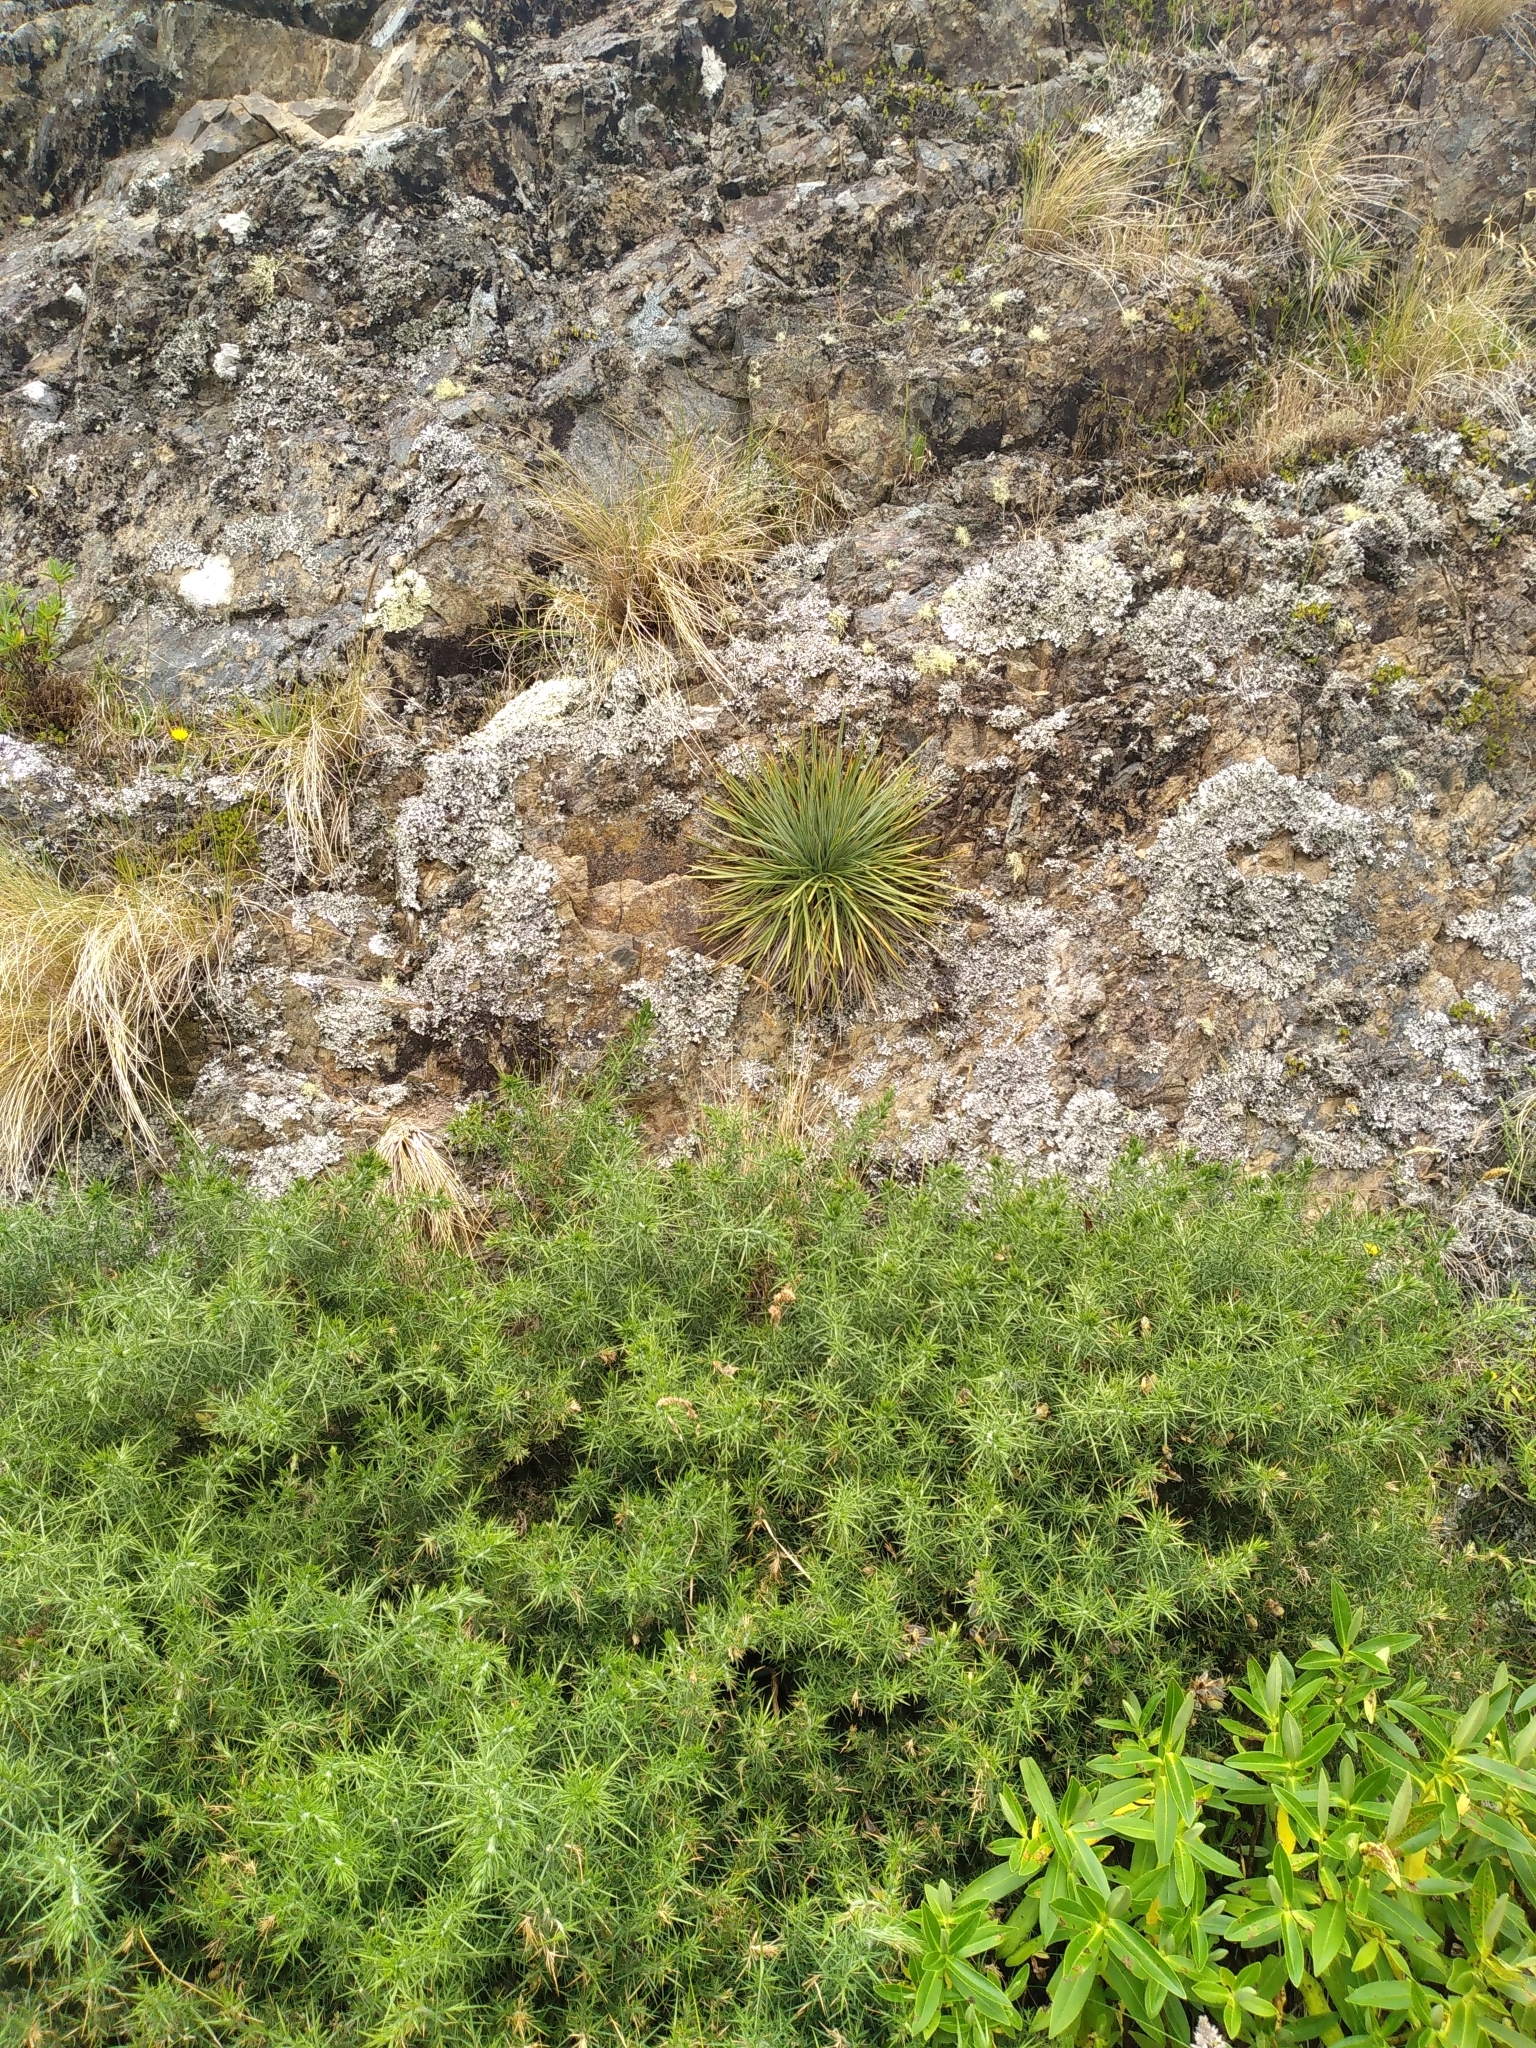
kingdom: Plantae
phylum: Tracheophyta
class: Magnoliopsida
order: Apiales
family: Apiaceae
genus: Aciphylla
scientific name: Aciphylla squarrosa
